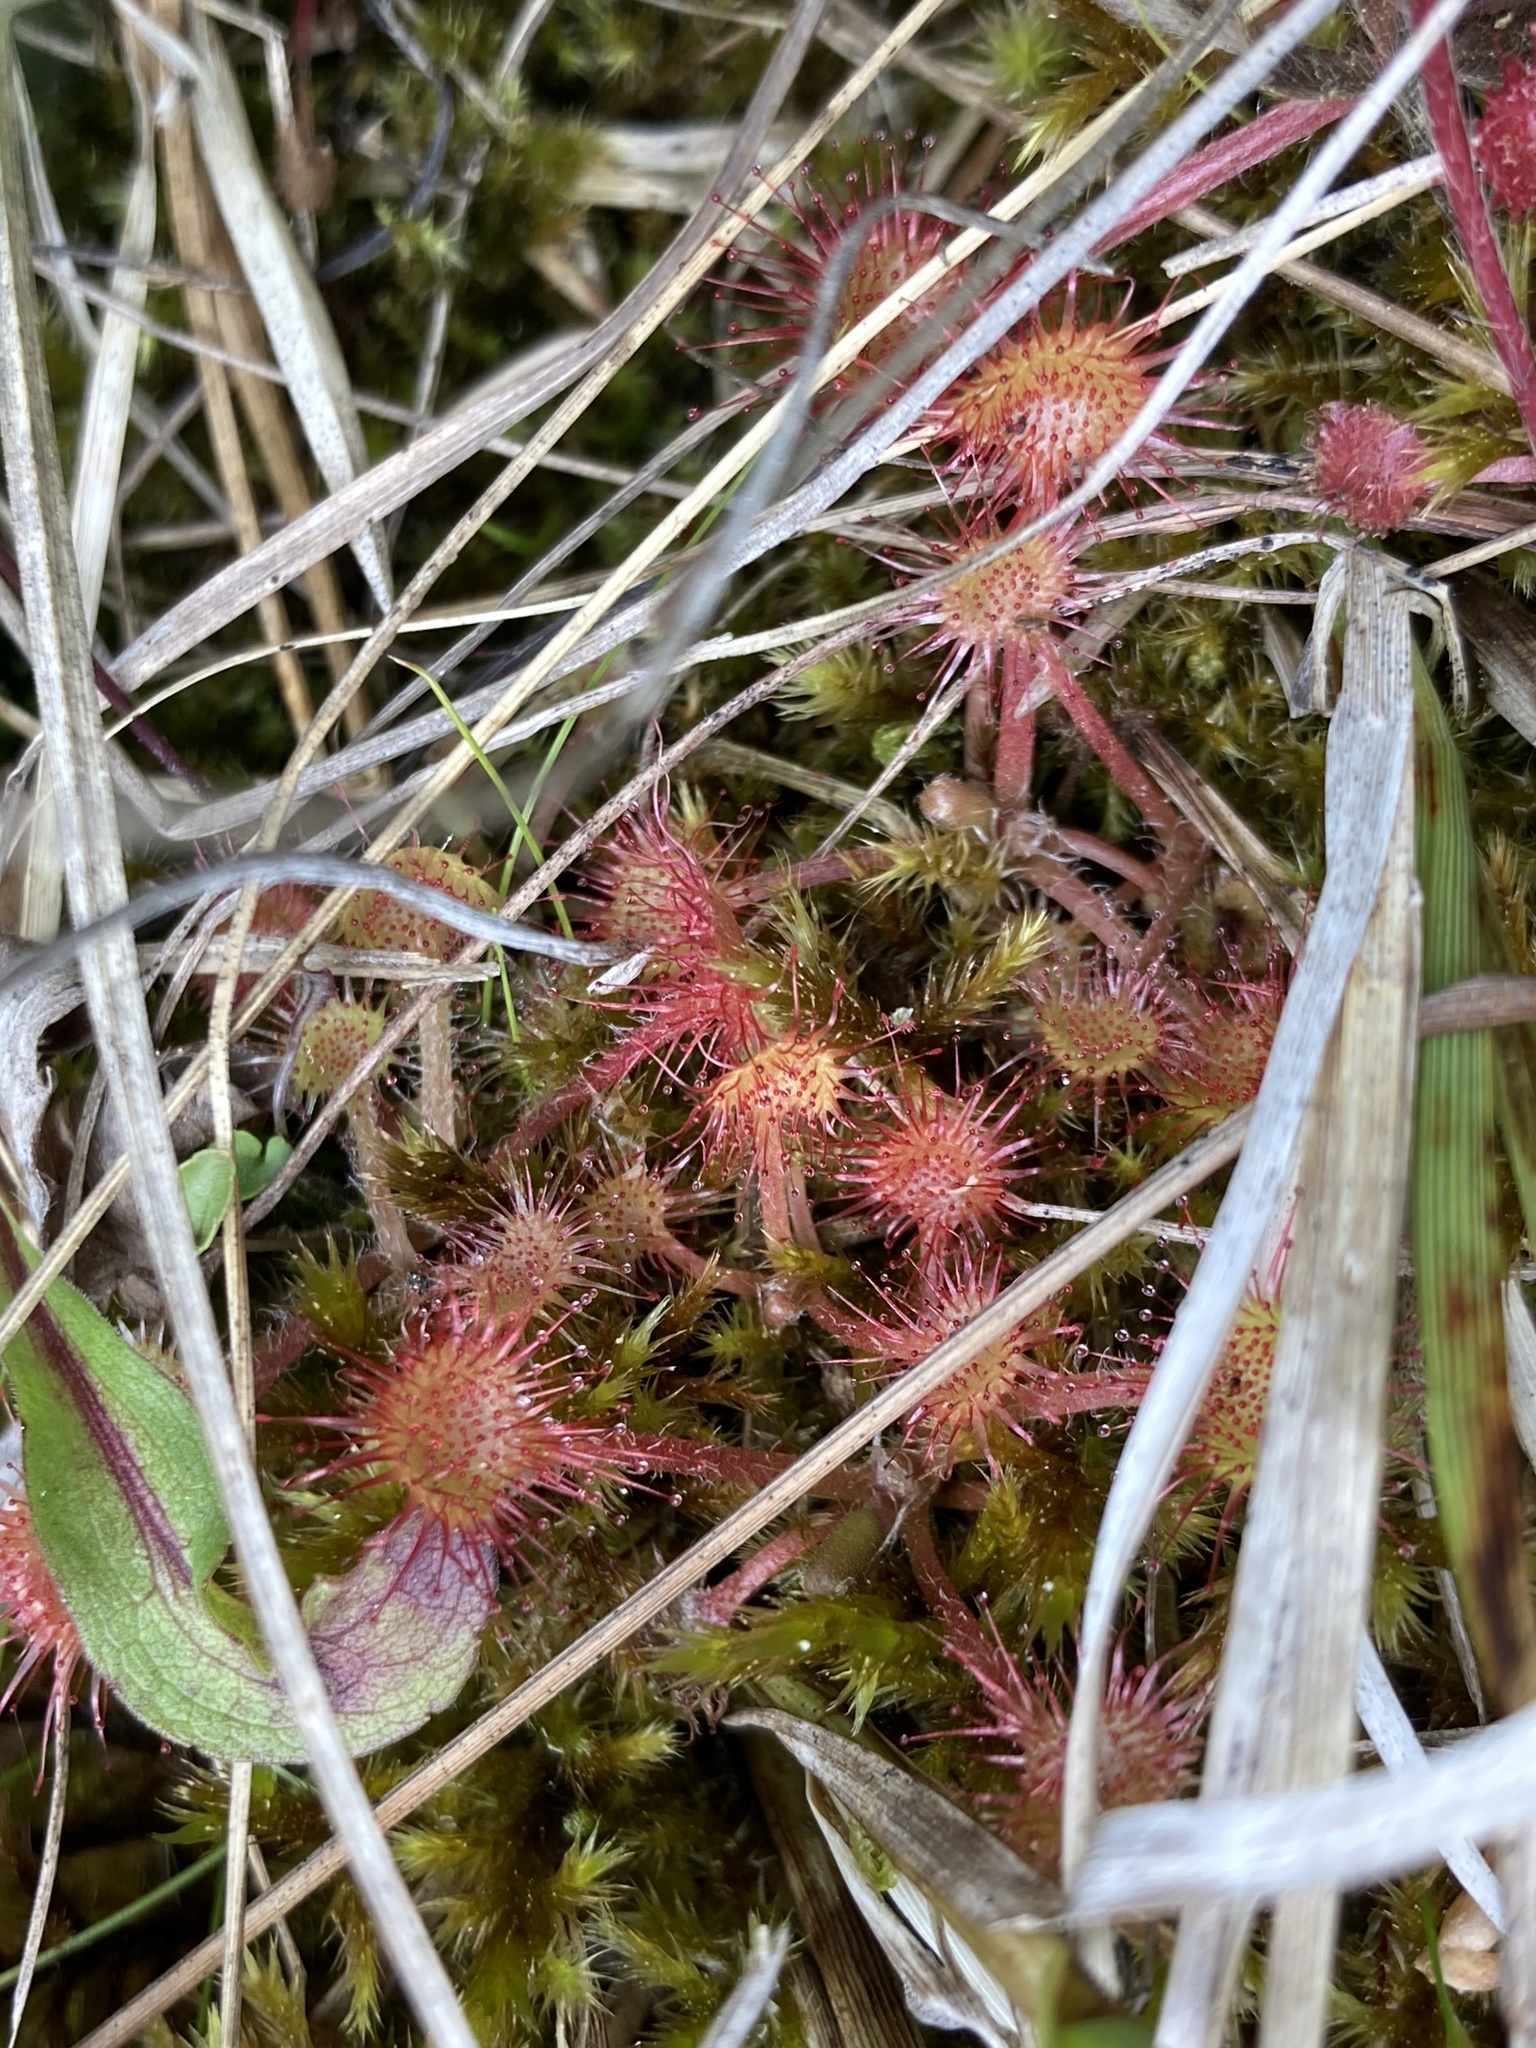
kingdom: Plantae
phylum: Tracheophyta
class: Magnoliopsida
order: Caryophyllales
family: Droseraceae
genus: Drosera
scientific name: Drosera rotundifolia
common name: Round-leaved sundew
